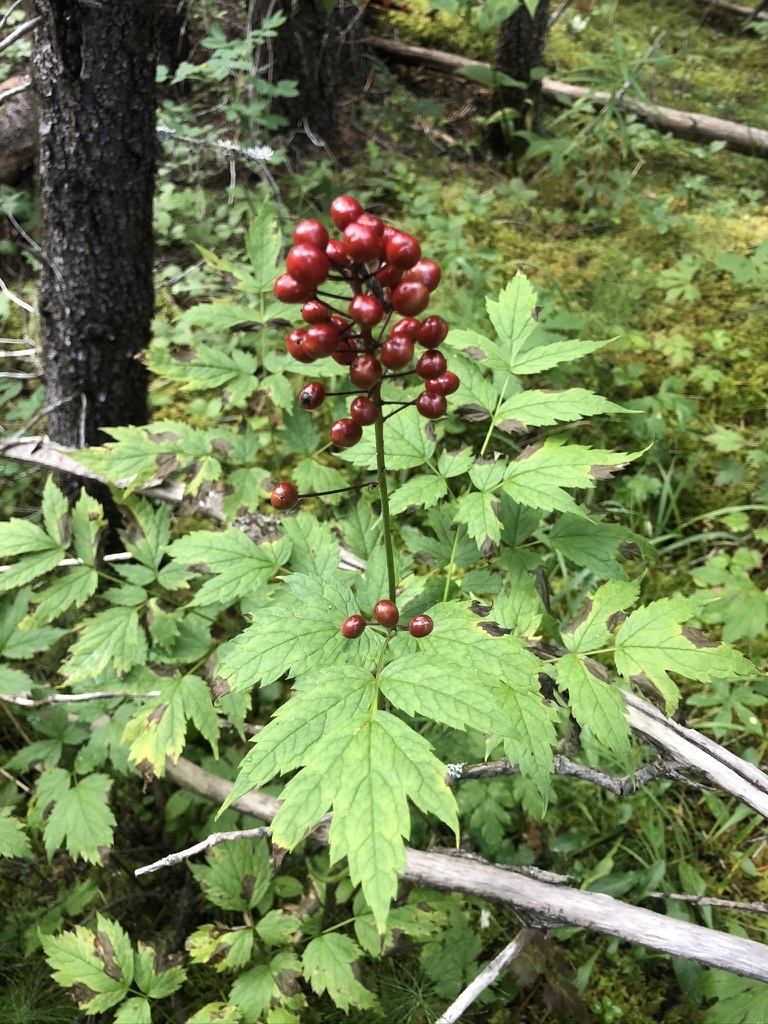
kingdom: Plantae
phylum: Tracheophyta
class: Magnoliopsida
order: Ranunculales
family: Ranunculaceae
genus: Actaea
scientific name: Actaea rubra
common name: Red baneberry
